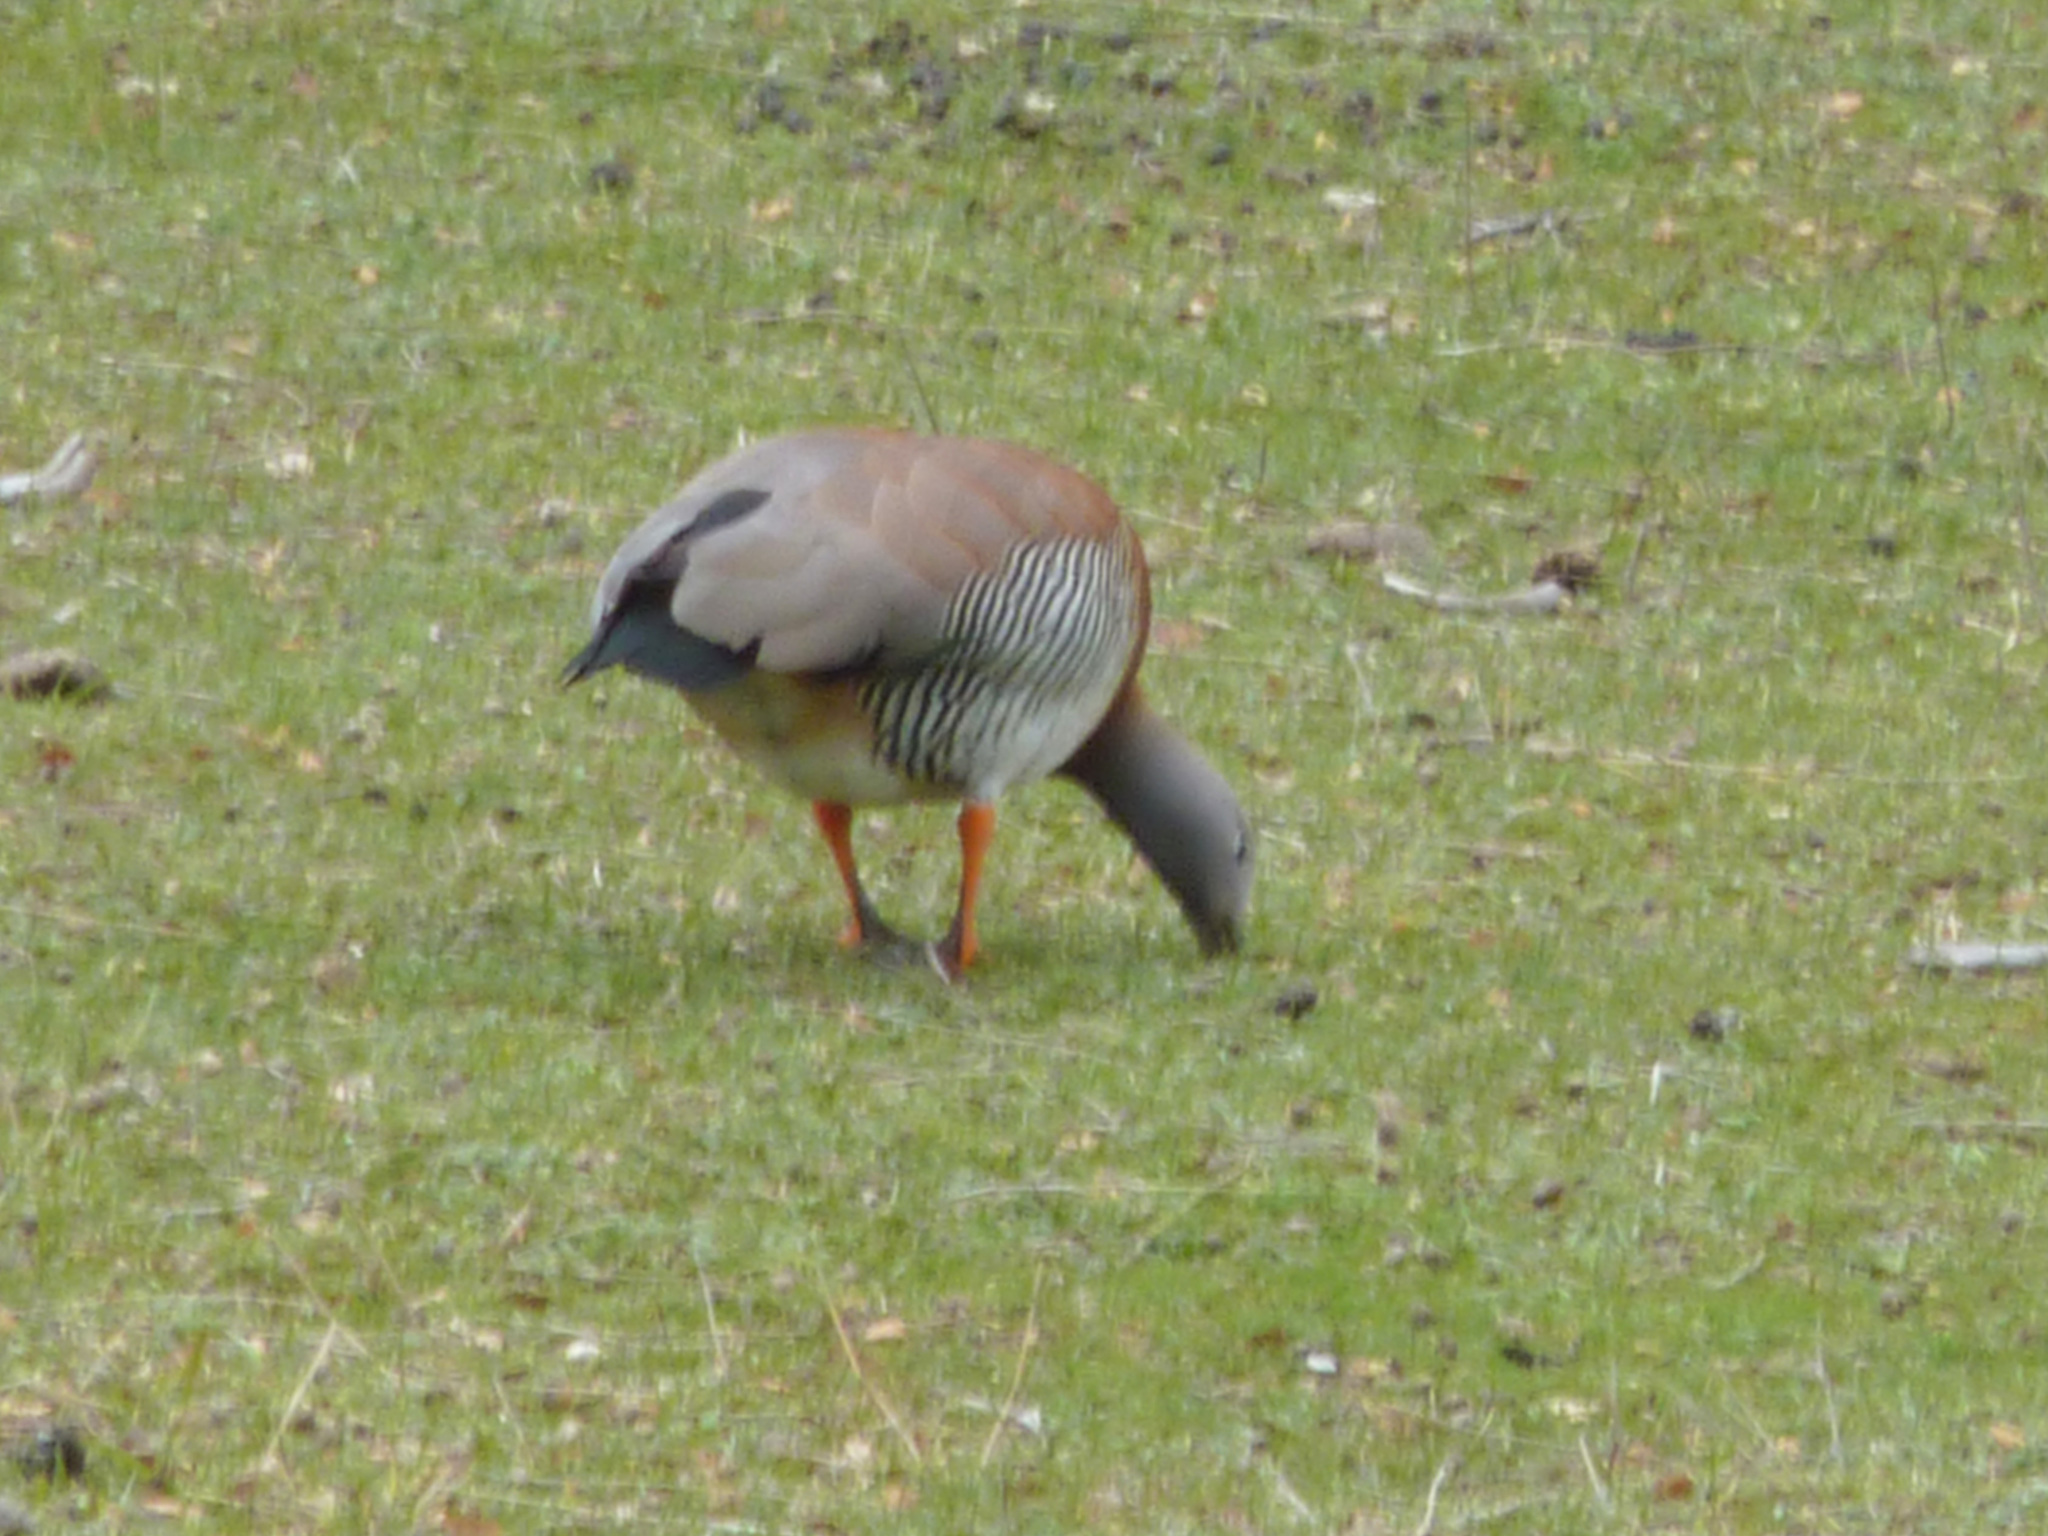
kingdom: Animalia
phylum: Chordata
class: Aves
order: Anseriformes
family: Anatidae
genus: Chloephaga
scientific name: Chloephaga poliocephala
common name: Ashy-headed goose
